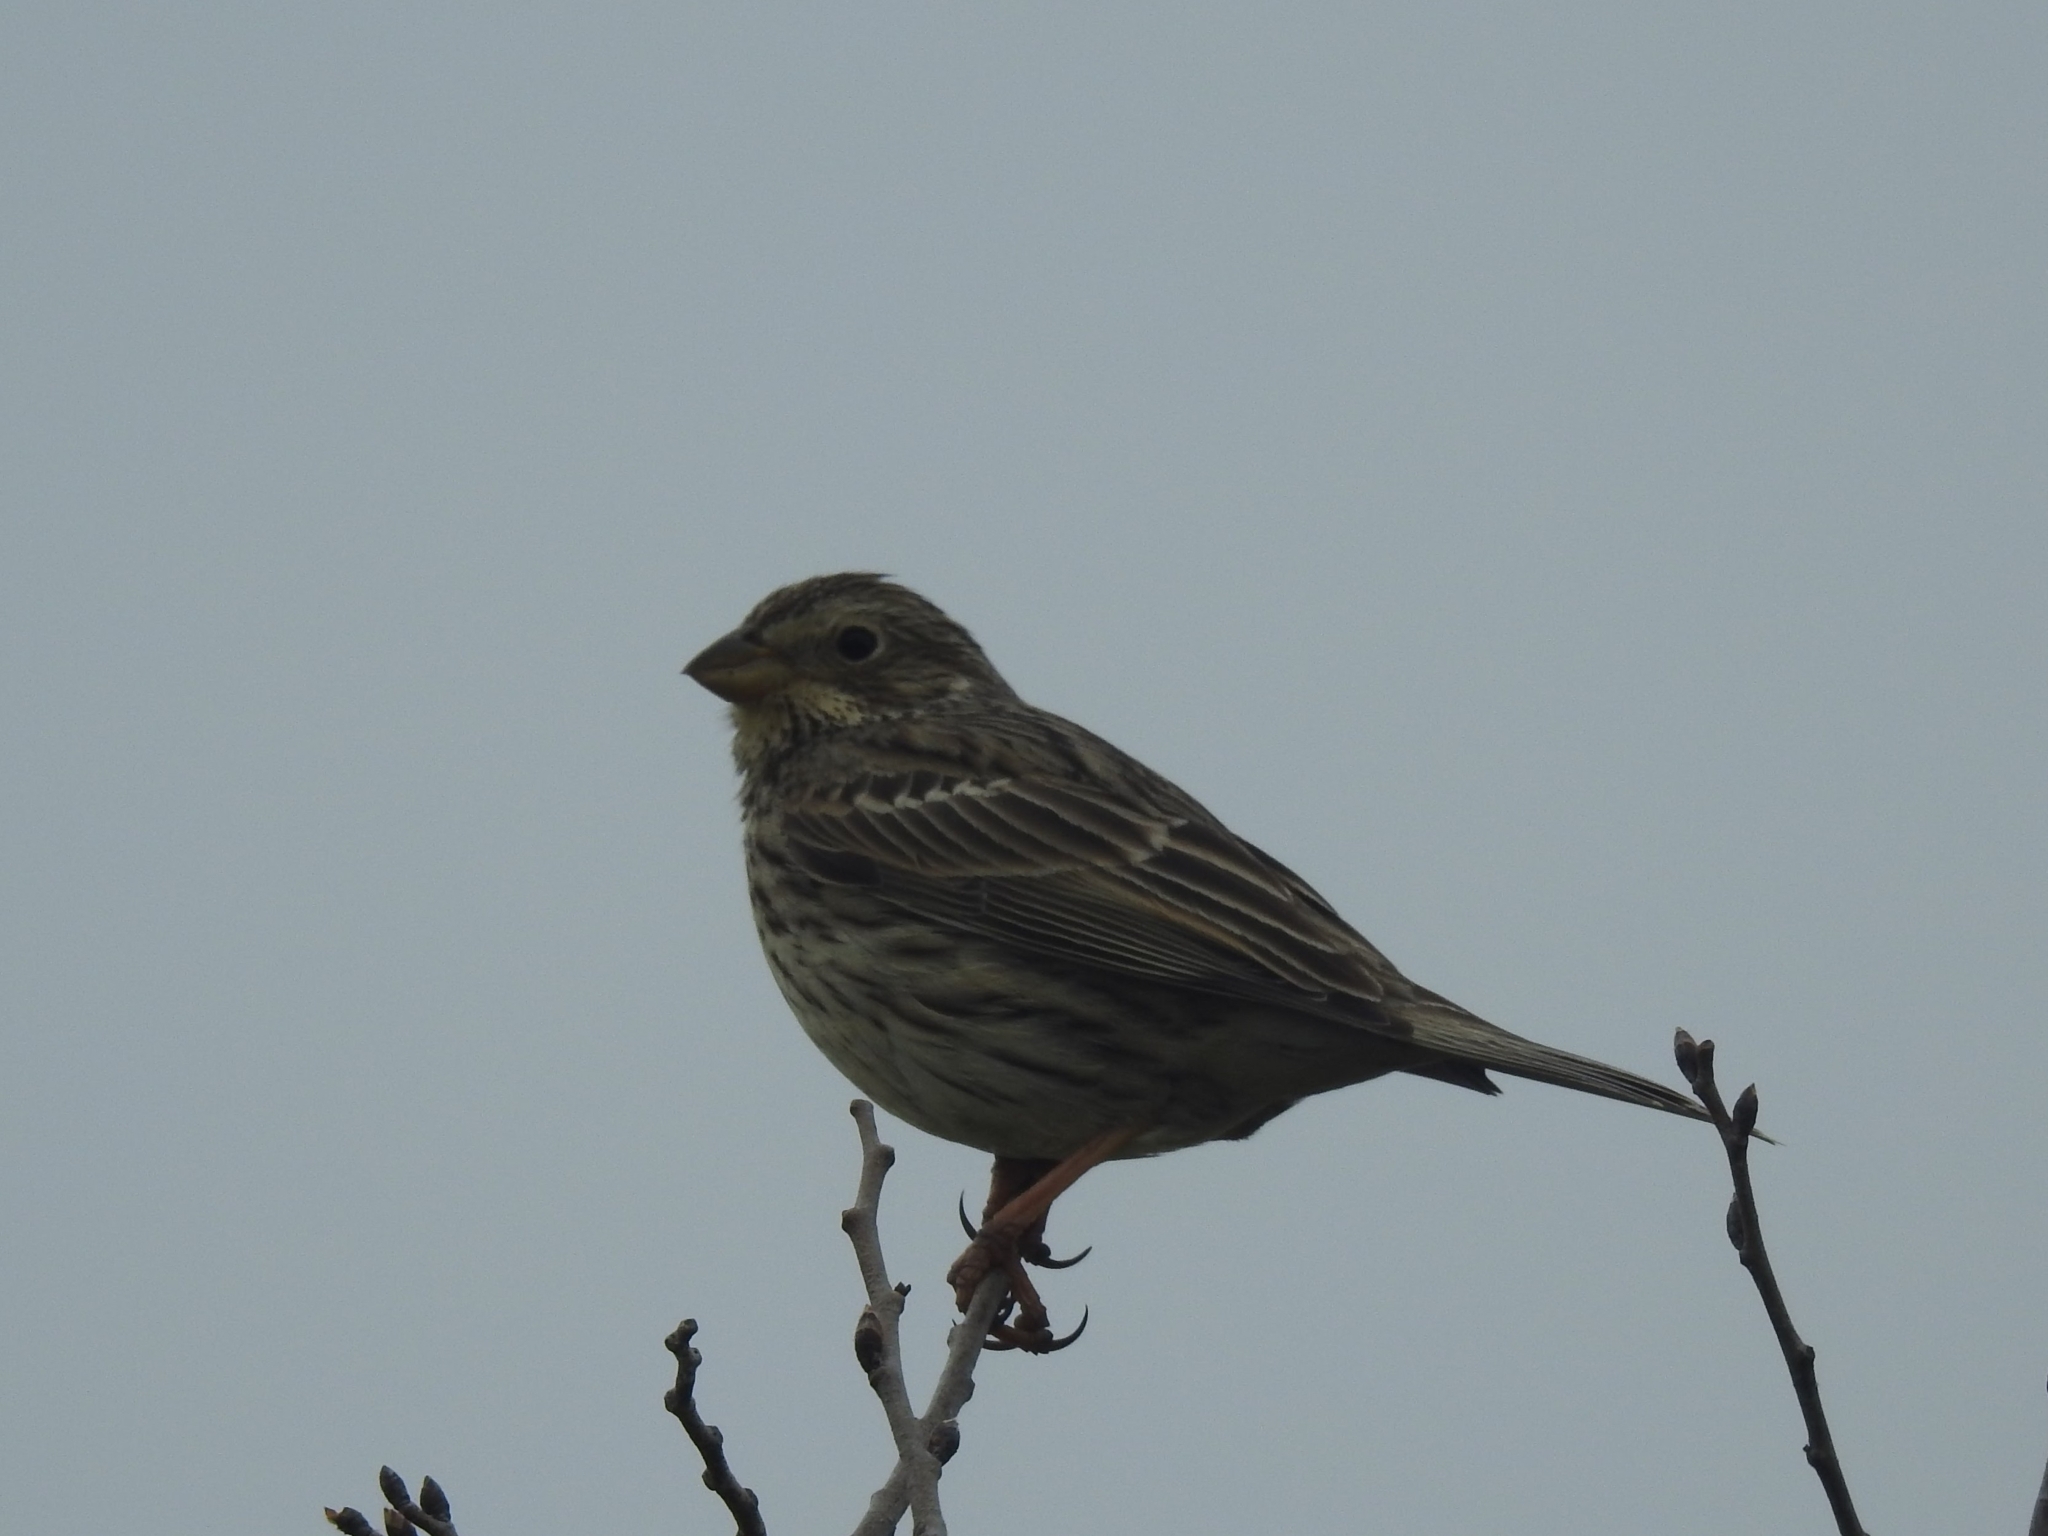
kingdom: Animalia
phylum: Chordata
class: Aves
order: Passeriformes
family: Emberizidae
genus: Emberiza
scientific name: Emberiza calandra
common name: Corn bunting
